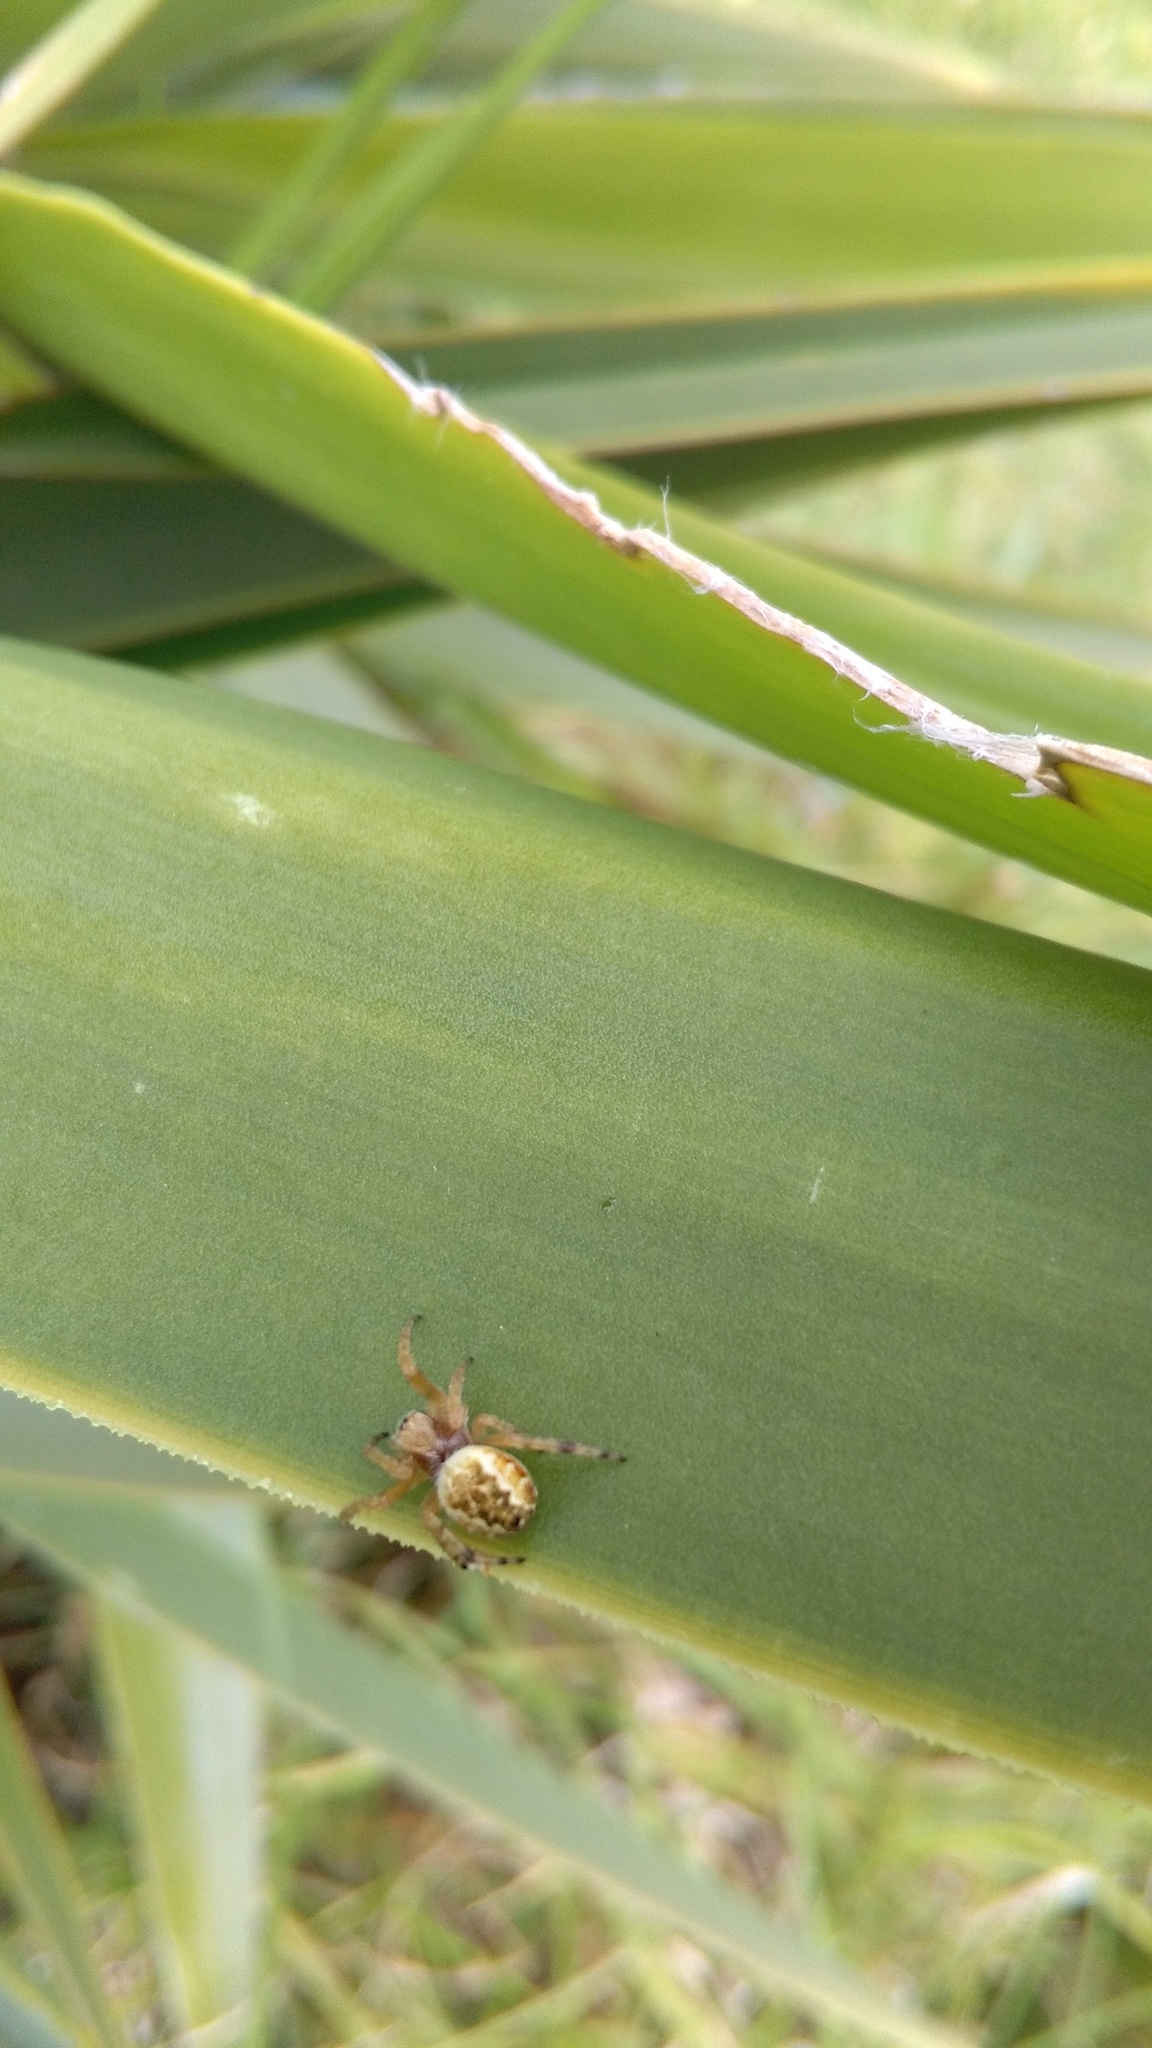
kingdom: Animalia
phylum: Arthropoda
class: Arachnida
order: Araneae
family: Araneidae
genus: Salsa
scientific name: Salsa fuliginata
